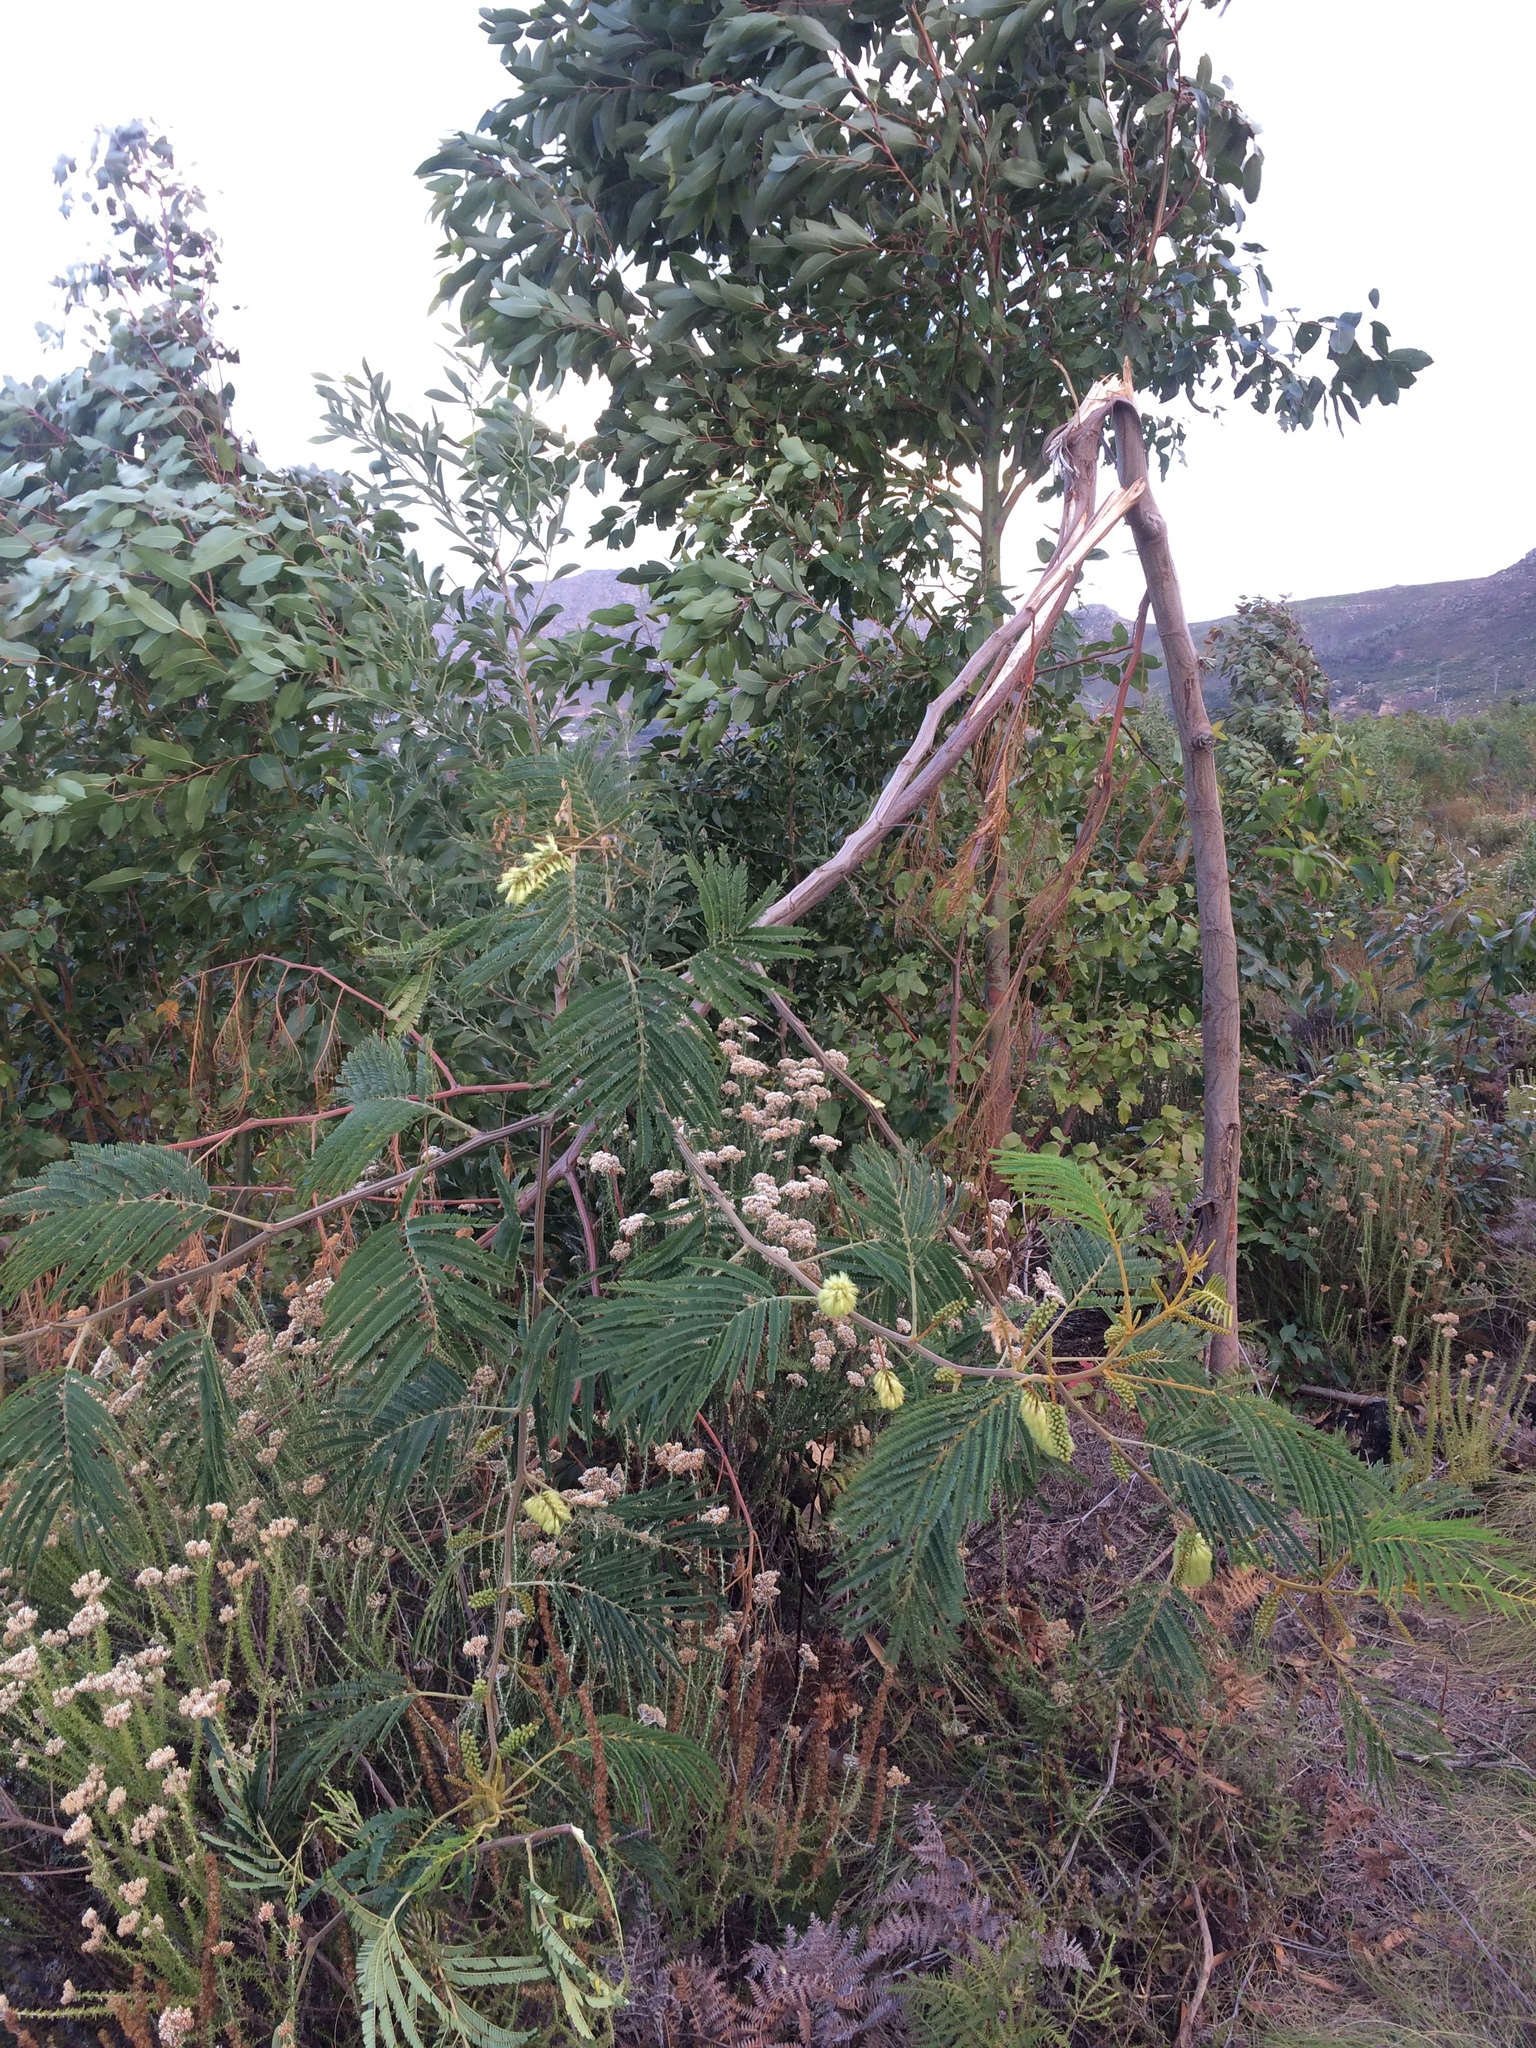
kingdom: Plantae
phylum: Tracheophyta
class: Magnoliopsida
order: Fabales
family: Fabaceae
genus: Paraserianthes
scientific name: Paraserianthes lophantha
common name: Plume albizia
